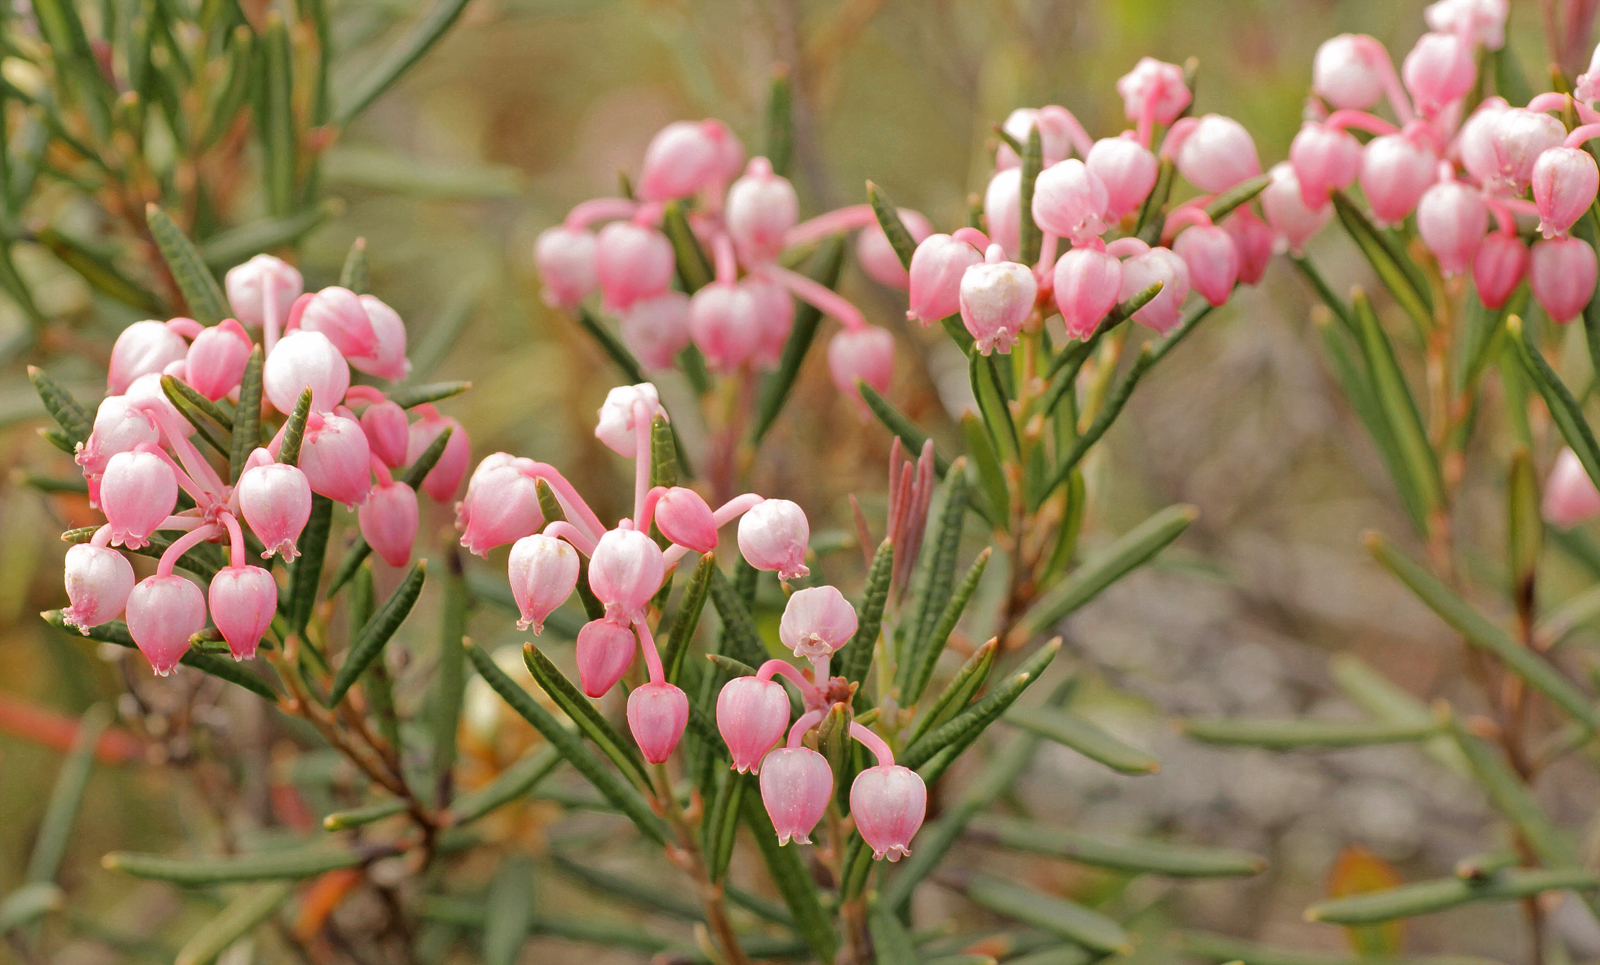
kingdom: Plantae
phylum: Tracheophyta
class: Magnoliopsida
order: Ericales
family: Ericaceae
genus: Andromeda
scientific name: Andromeda polifolia
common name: Bog-rosemary
